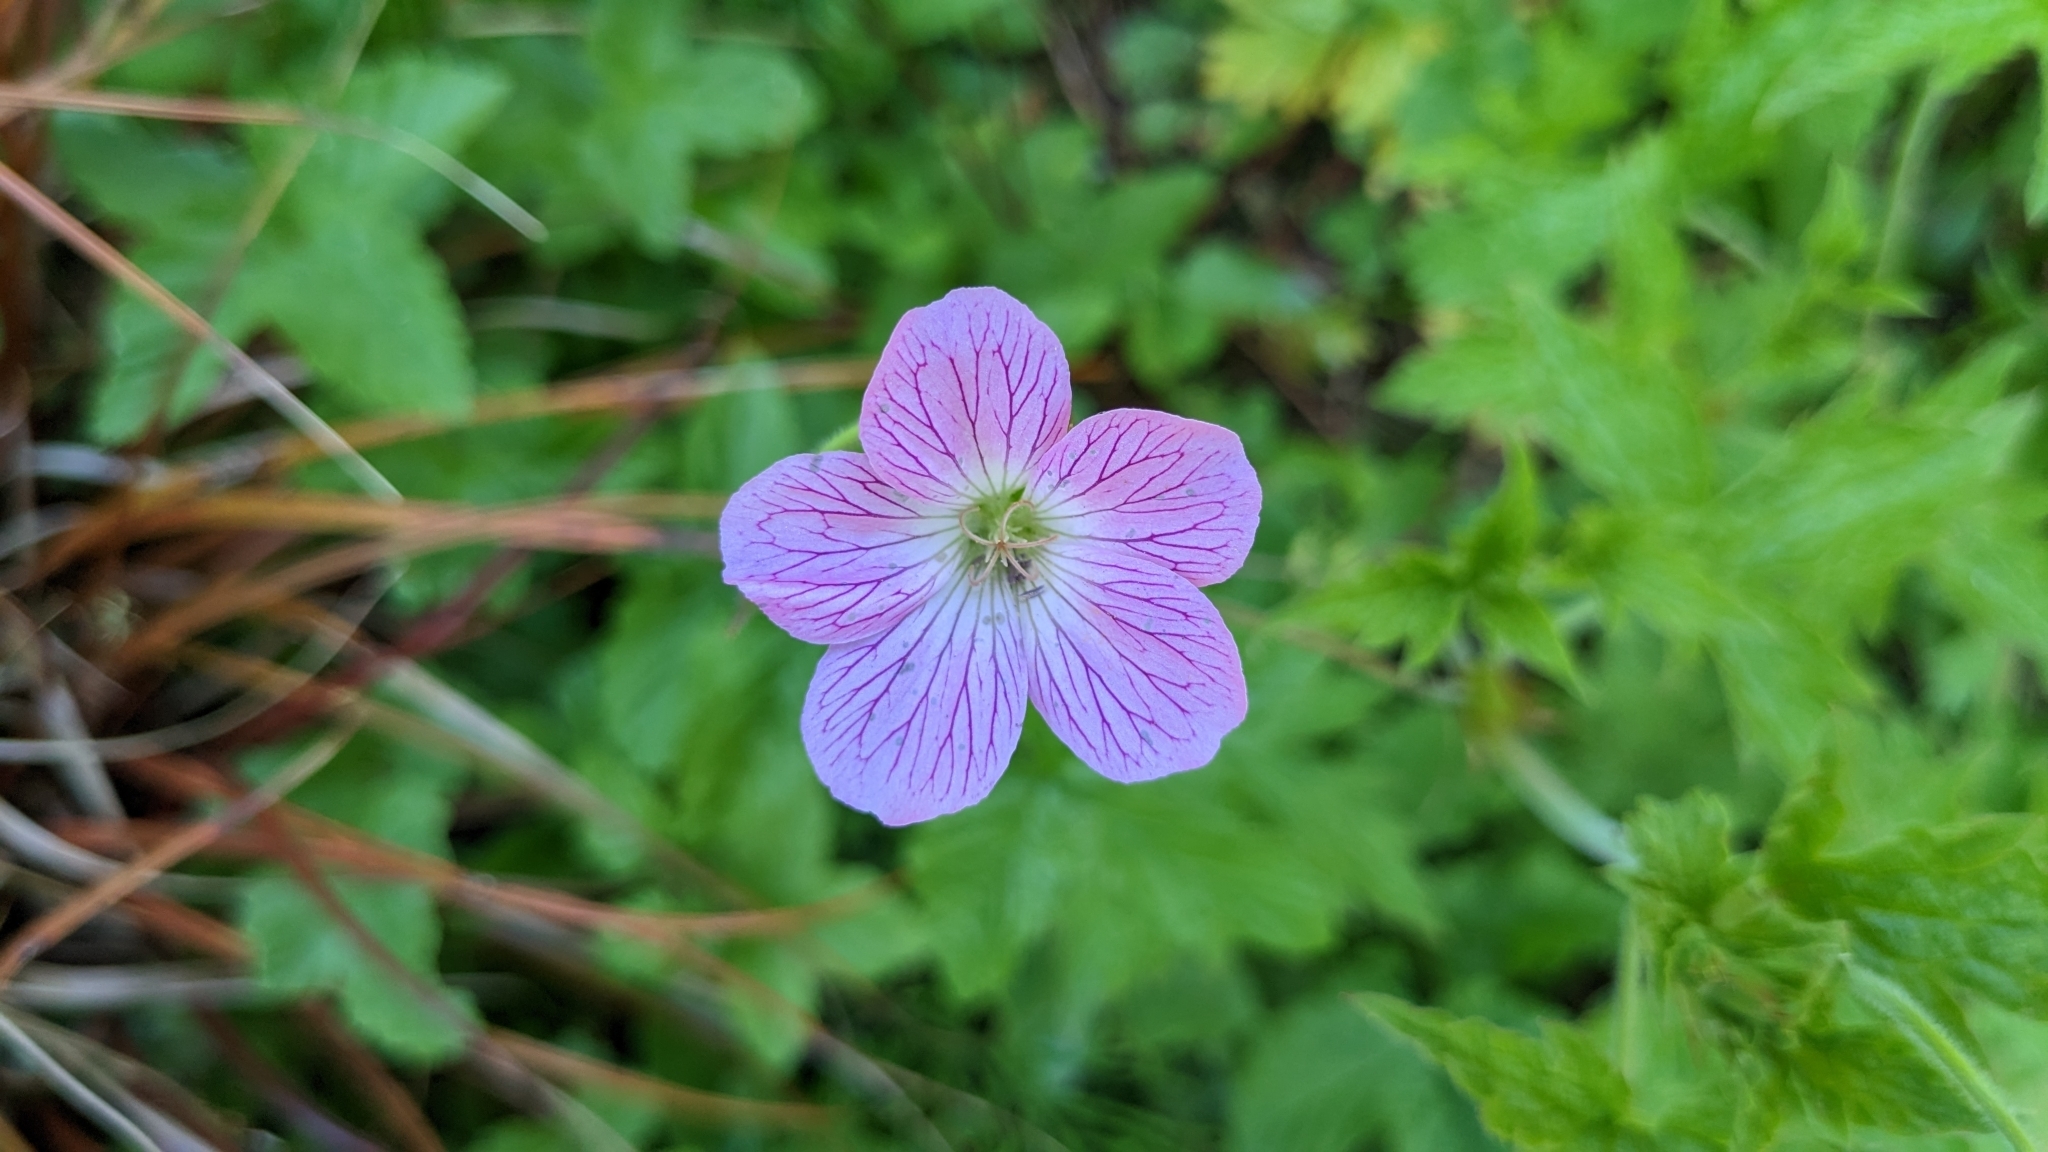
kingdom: Plantae
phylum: Tracheophyta
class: Magnoliopsida
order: Geraniales
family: Geraniaceae
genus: Geranium
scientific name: Geranium oxonianum
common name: Druce's crane's-bill
